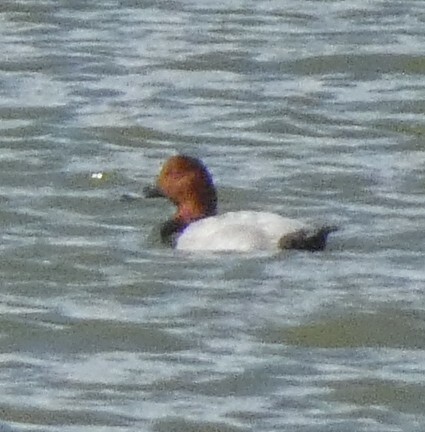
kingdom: Animalia
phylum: Chordata
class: Aves
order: Anseriformes
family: Anatidae
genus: Aythya
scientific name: Aythya ferina
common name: Common pochard
